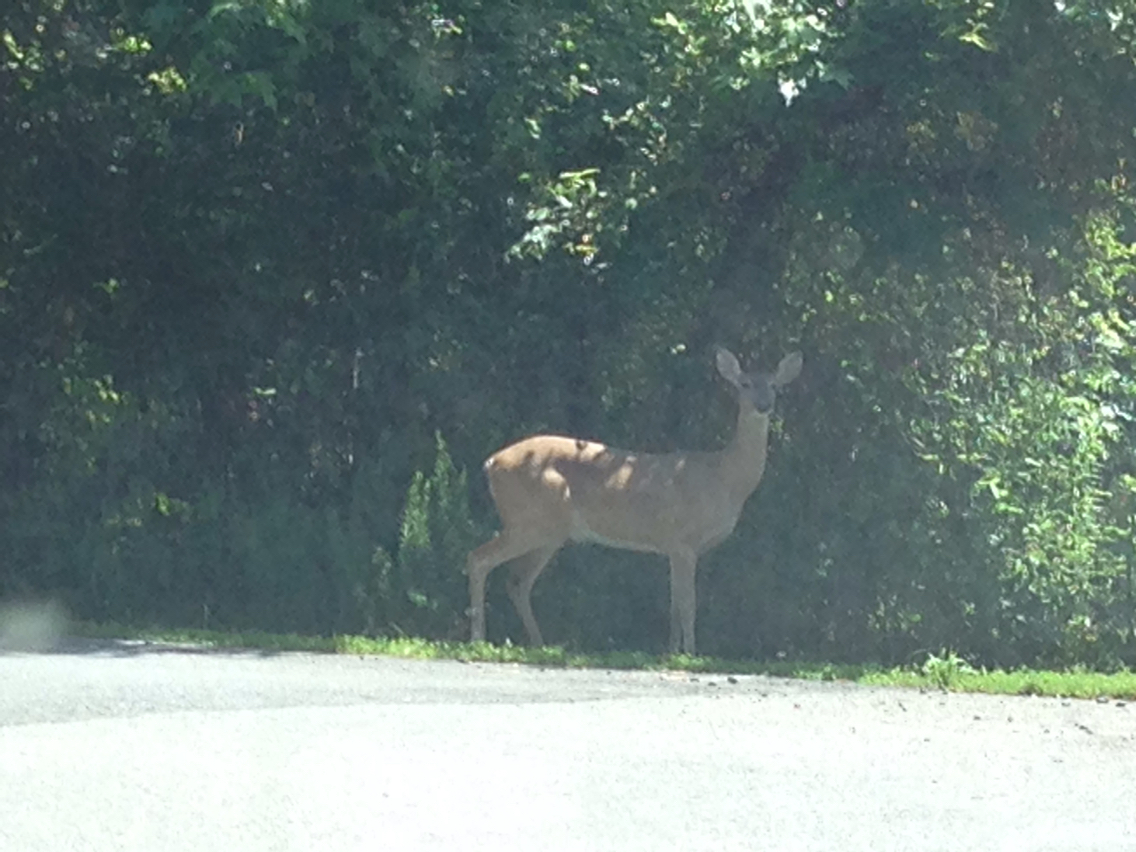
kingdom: Animalia
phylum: Chordata
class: Mammalia
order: Artiodactyla
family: Cervidae
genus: Odocoileus
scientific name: Odocoileus virginianus
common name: White-tailed deer
